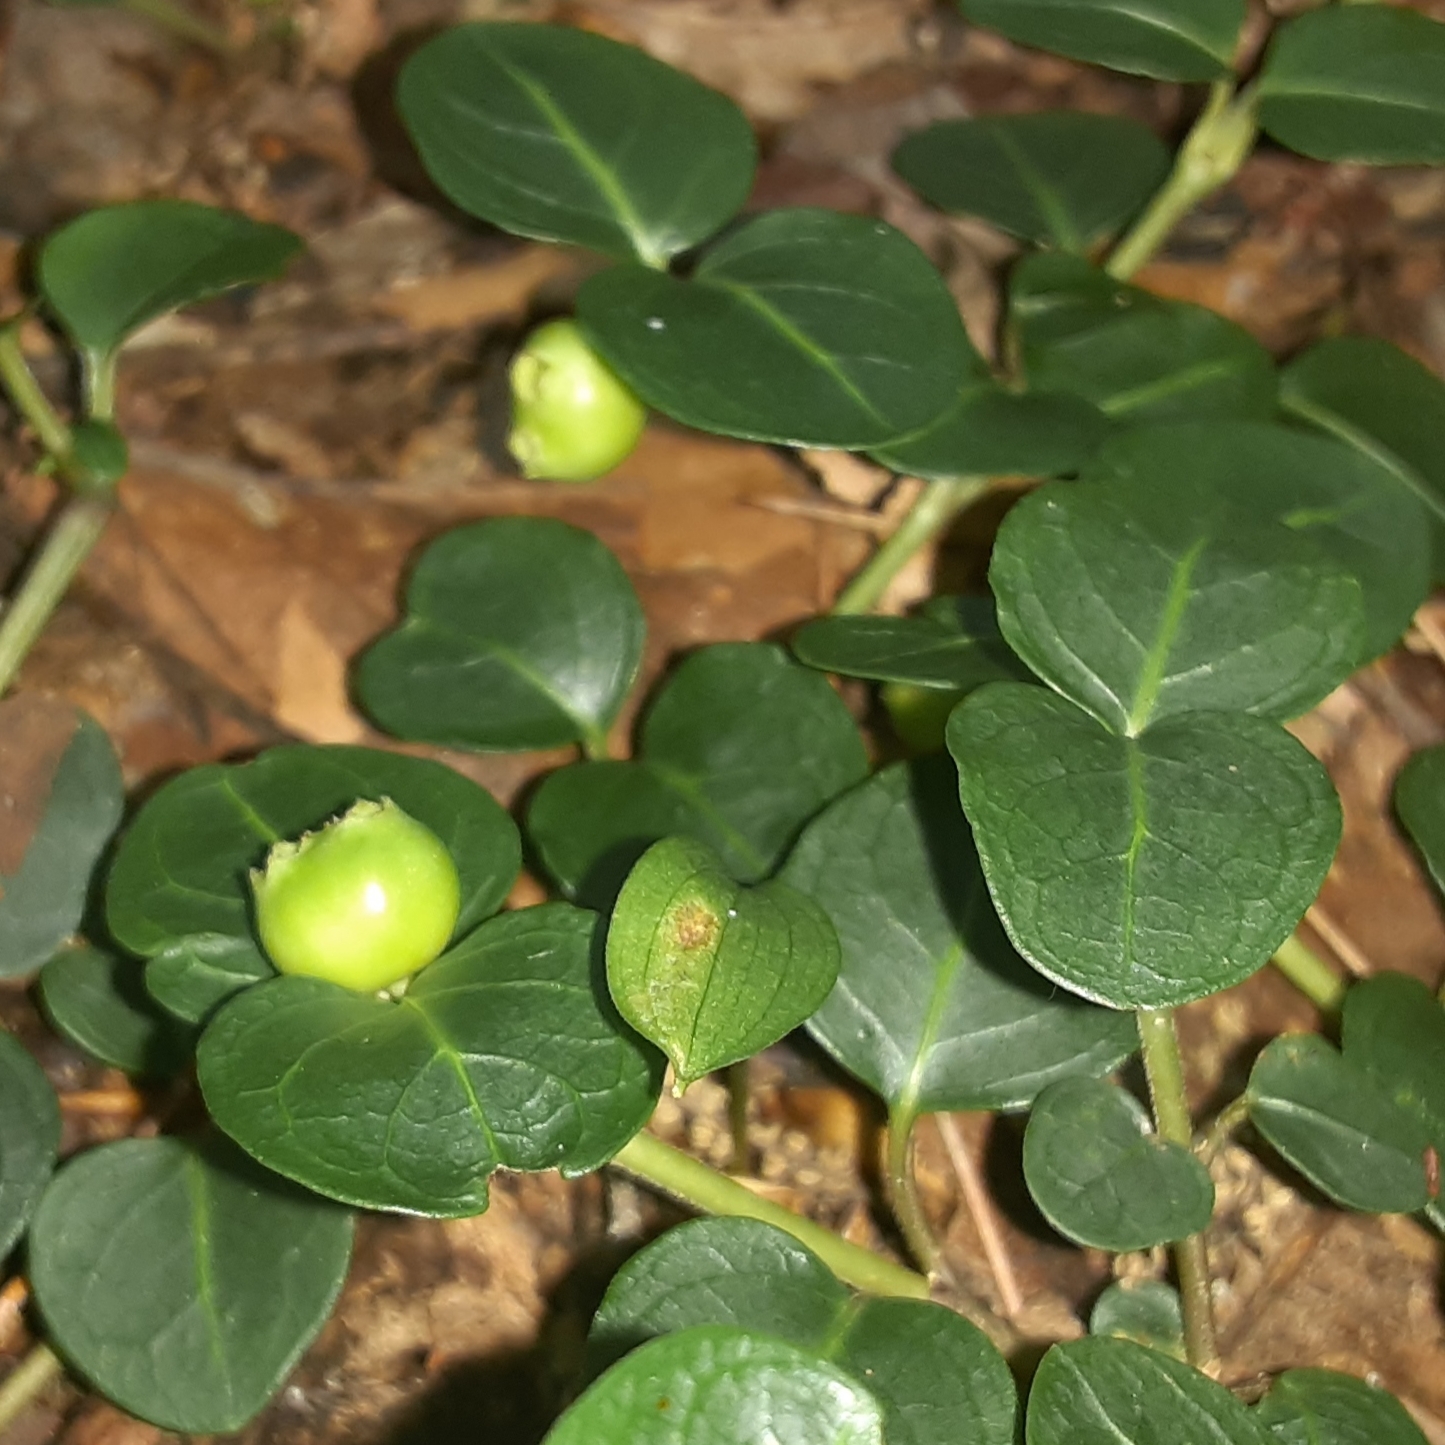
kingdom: Plantae
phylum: Tracheophyta
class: Magnoliopsida
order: Gentianales
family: Rubiaceae
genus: Mitchella
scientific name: Mitchella repens
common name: Partridge-berry
